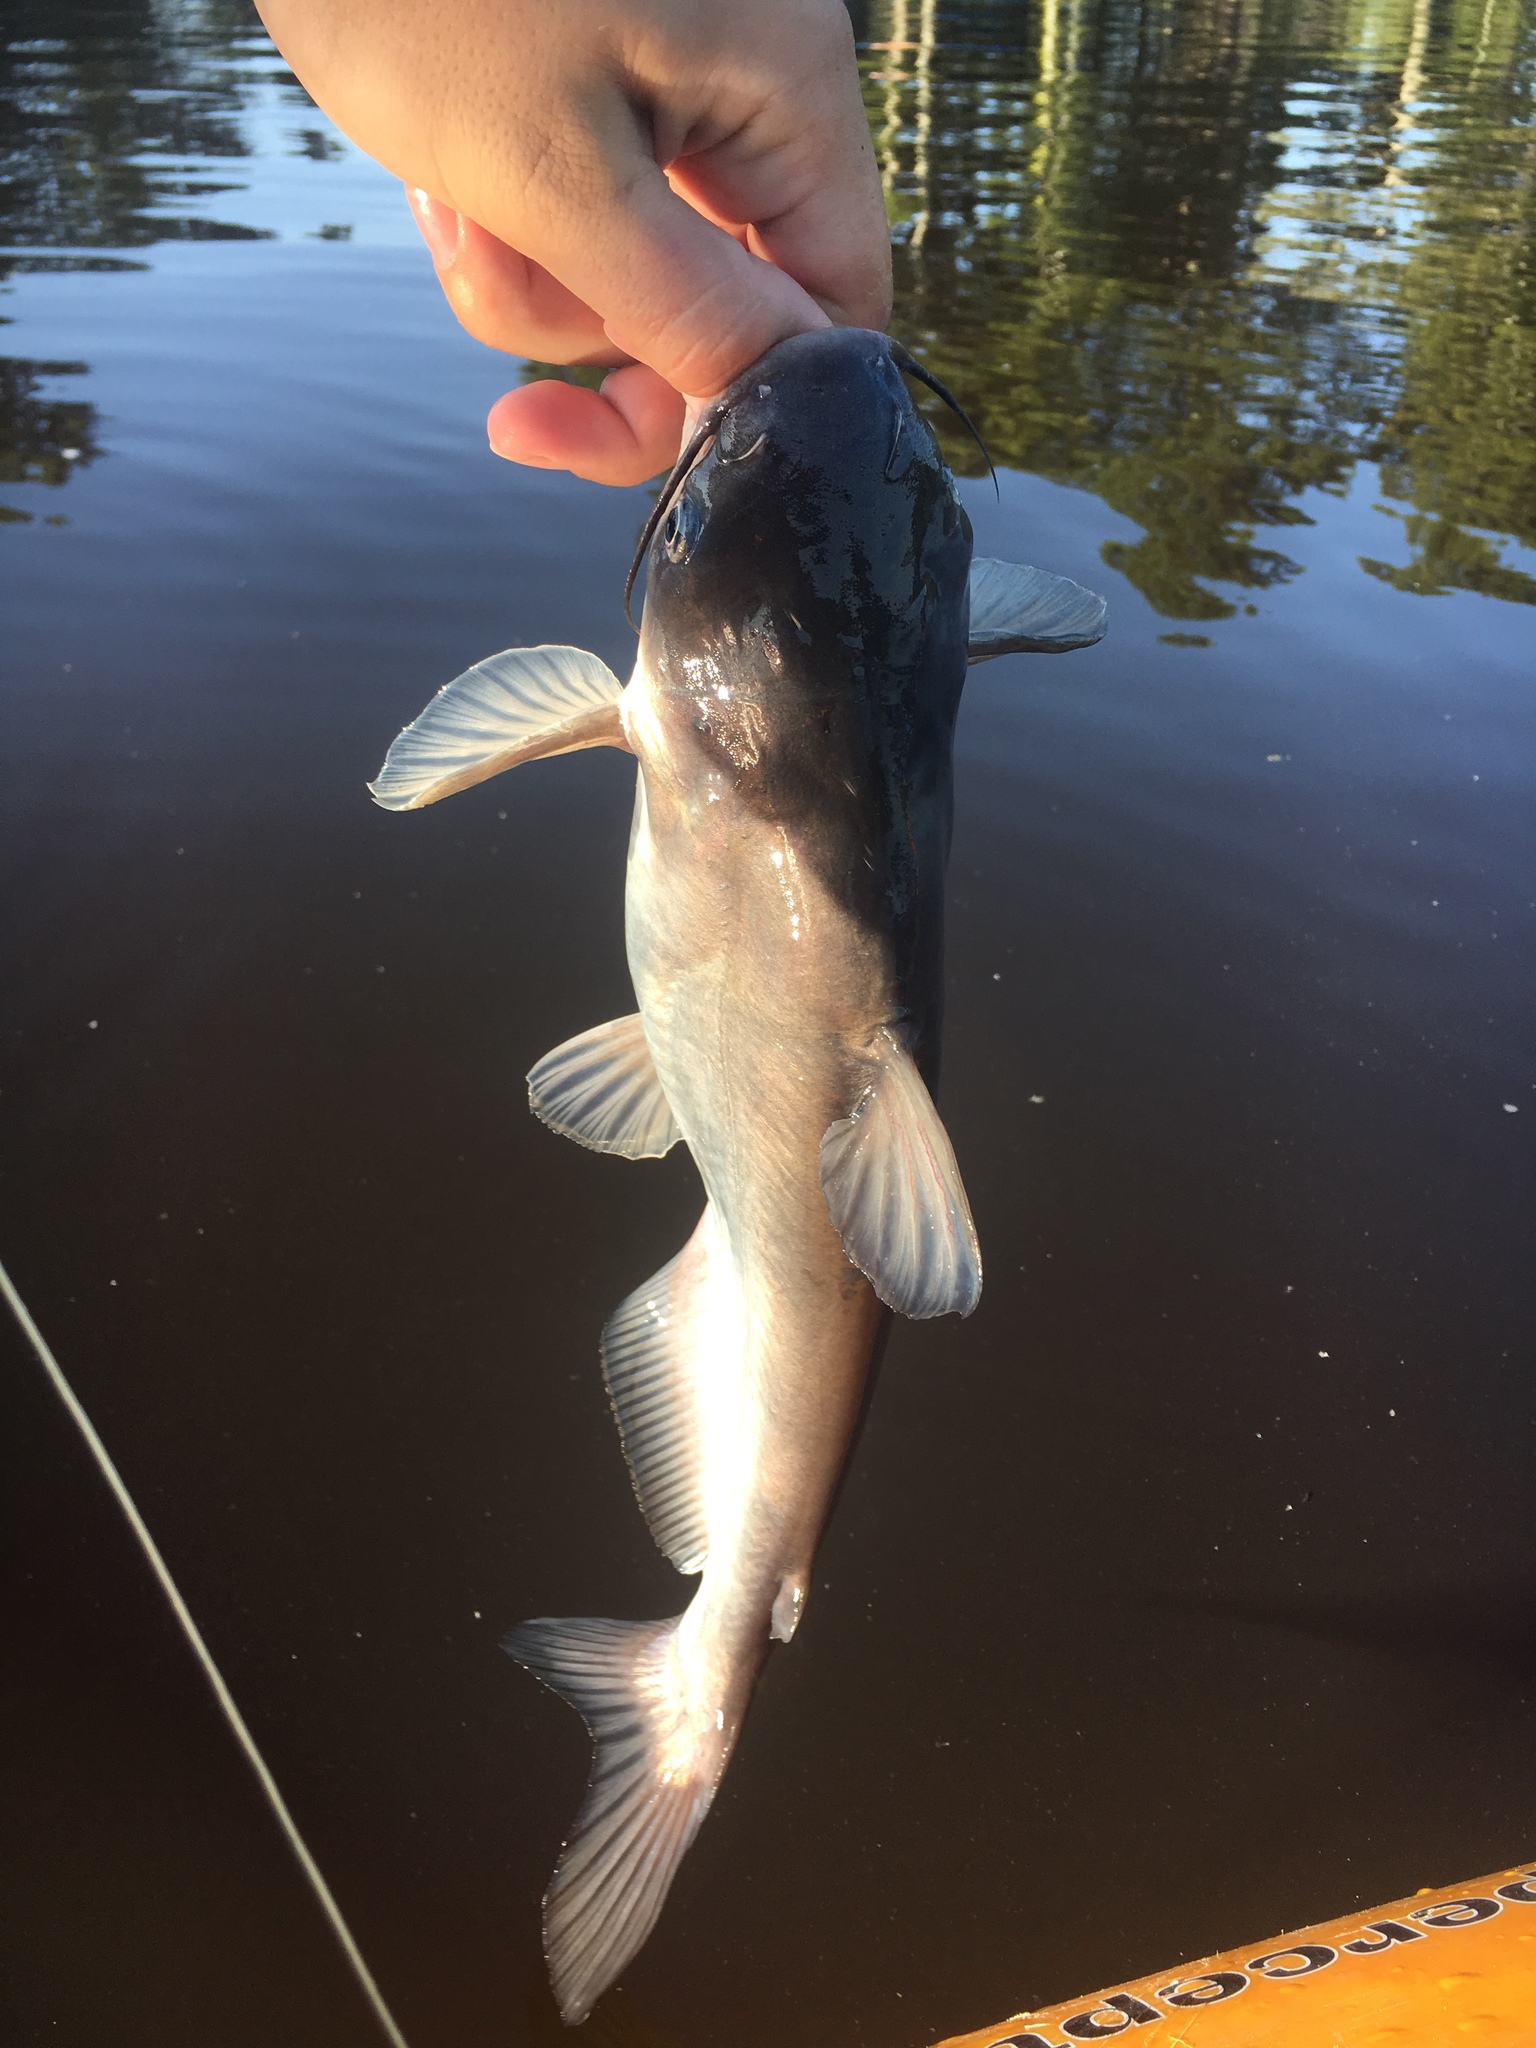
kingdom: Animalia
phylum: Chordata
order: Siluriformes
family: Ictaluridae
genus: Ictalurus
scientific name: Ictalurus furcatus
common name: Blue catfish
